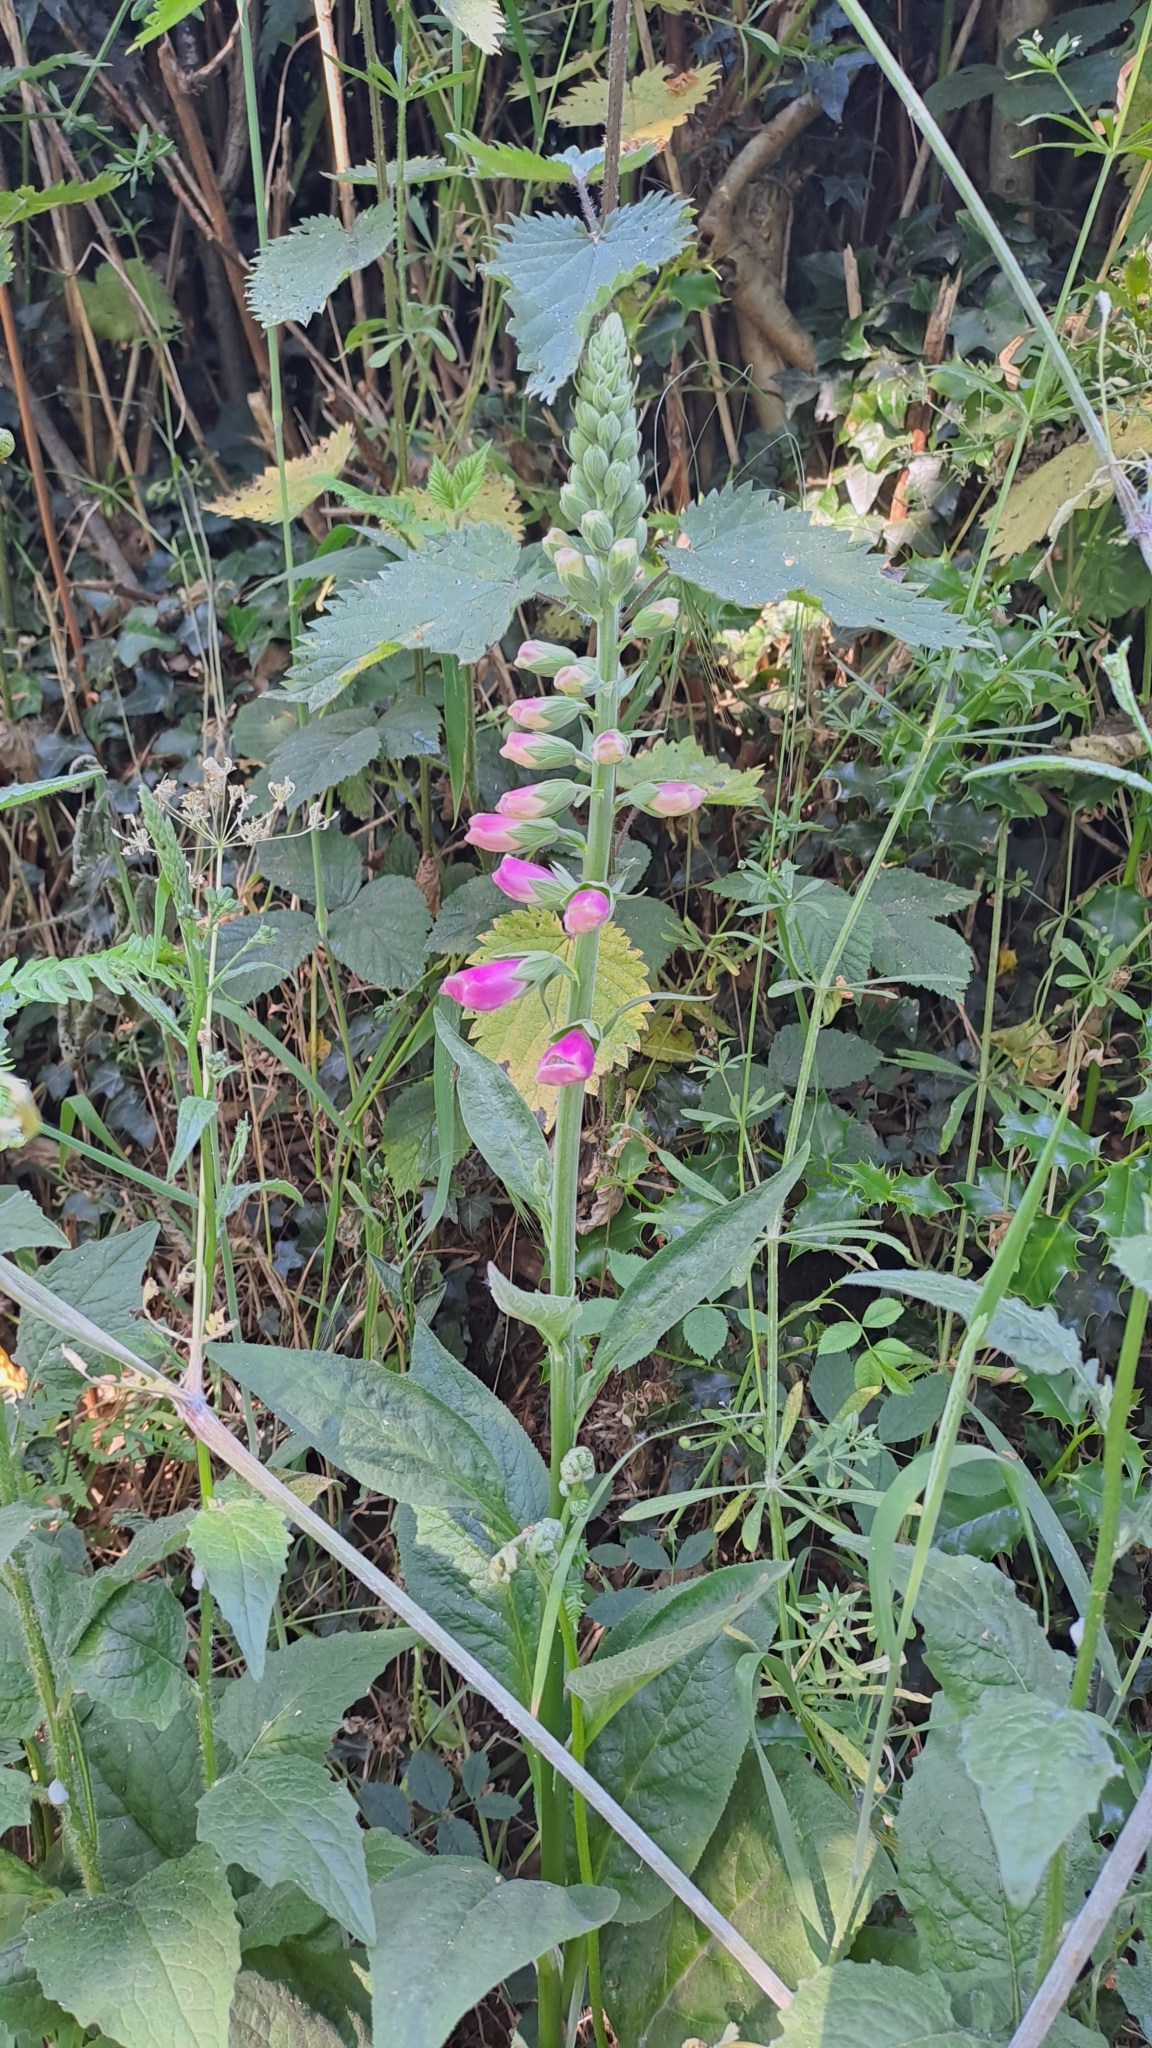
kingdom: Plantae
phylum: Tracheophyta
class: Magnoliopsida
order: Lamiales
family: Plantaginaceae
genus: Digitalis
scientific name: Digitalis purpurea
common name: Foxglove
